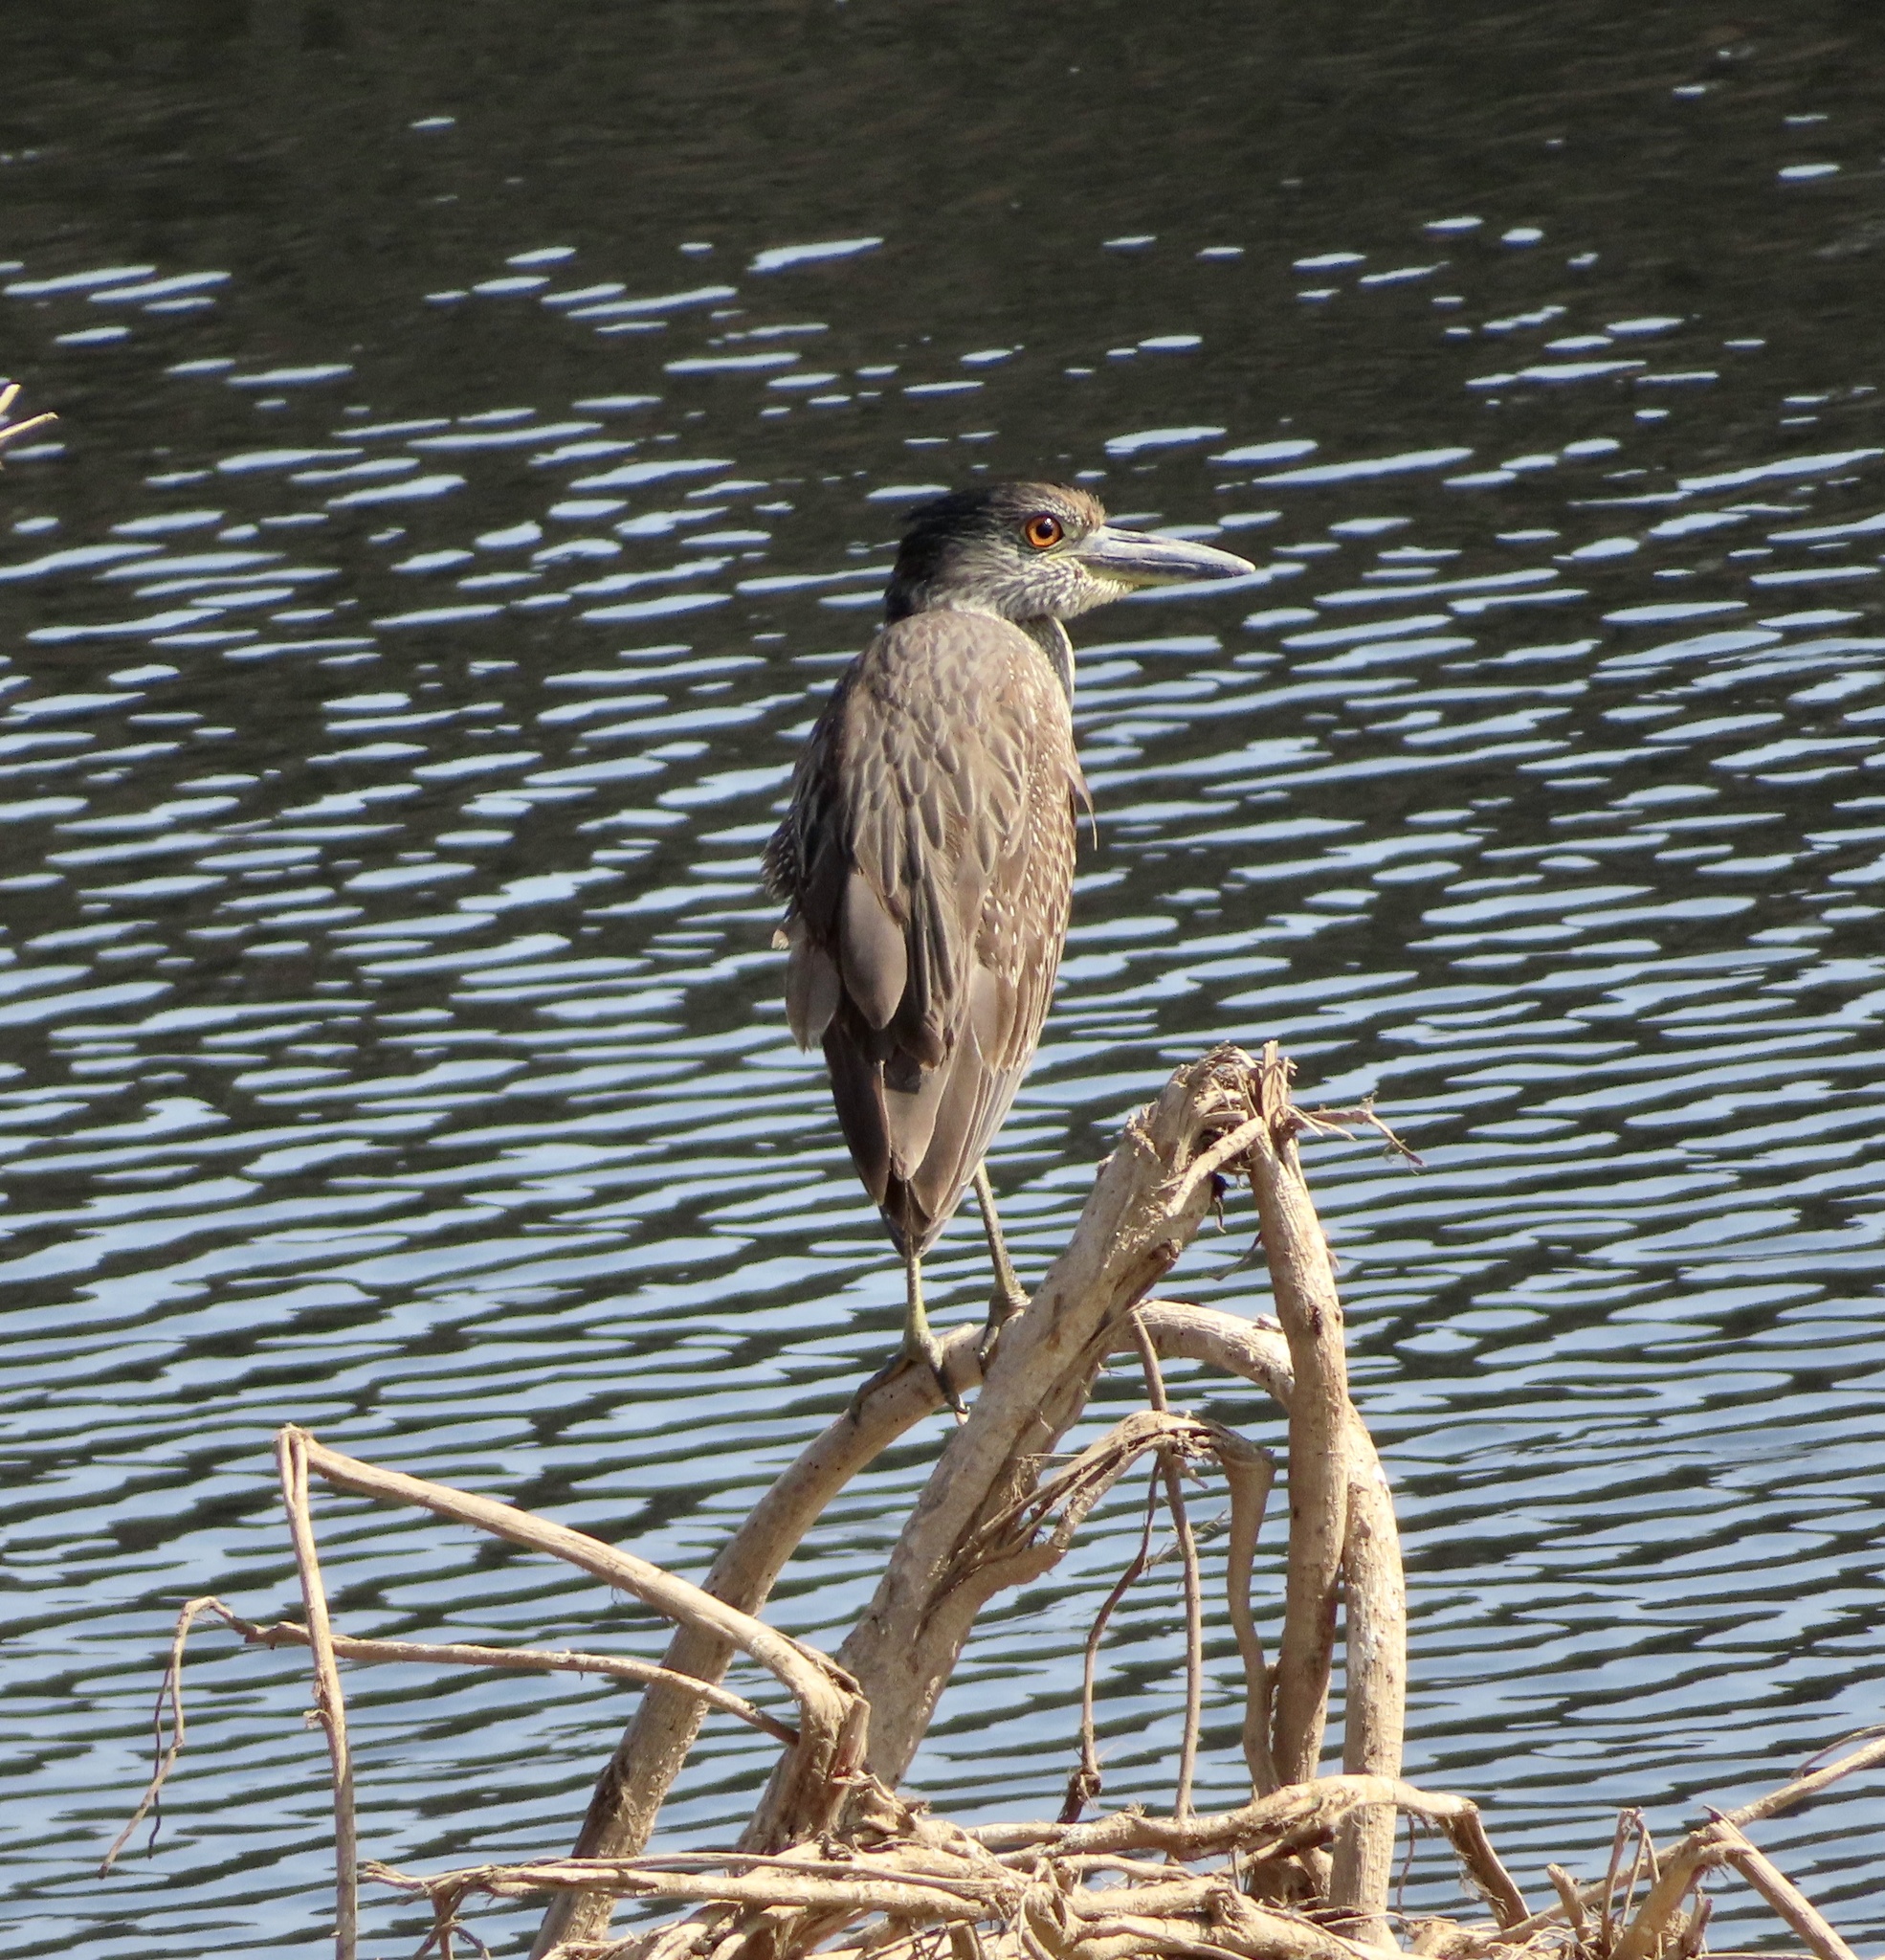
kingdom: Animalia
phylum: Chordata
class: Aves
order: Pelecaniformes
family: Ardeidae
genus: Nyctanassa
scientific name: Nyctanassa violacea
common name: Yellow-crowned night heron
